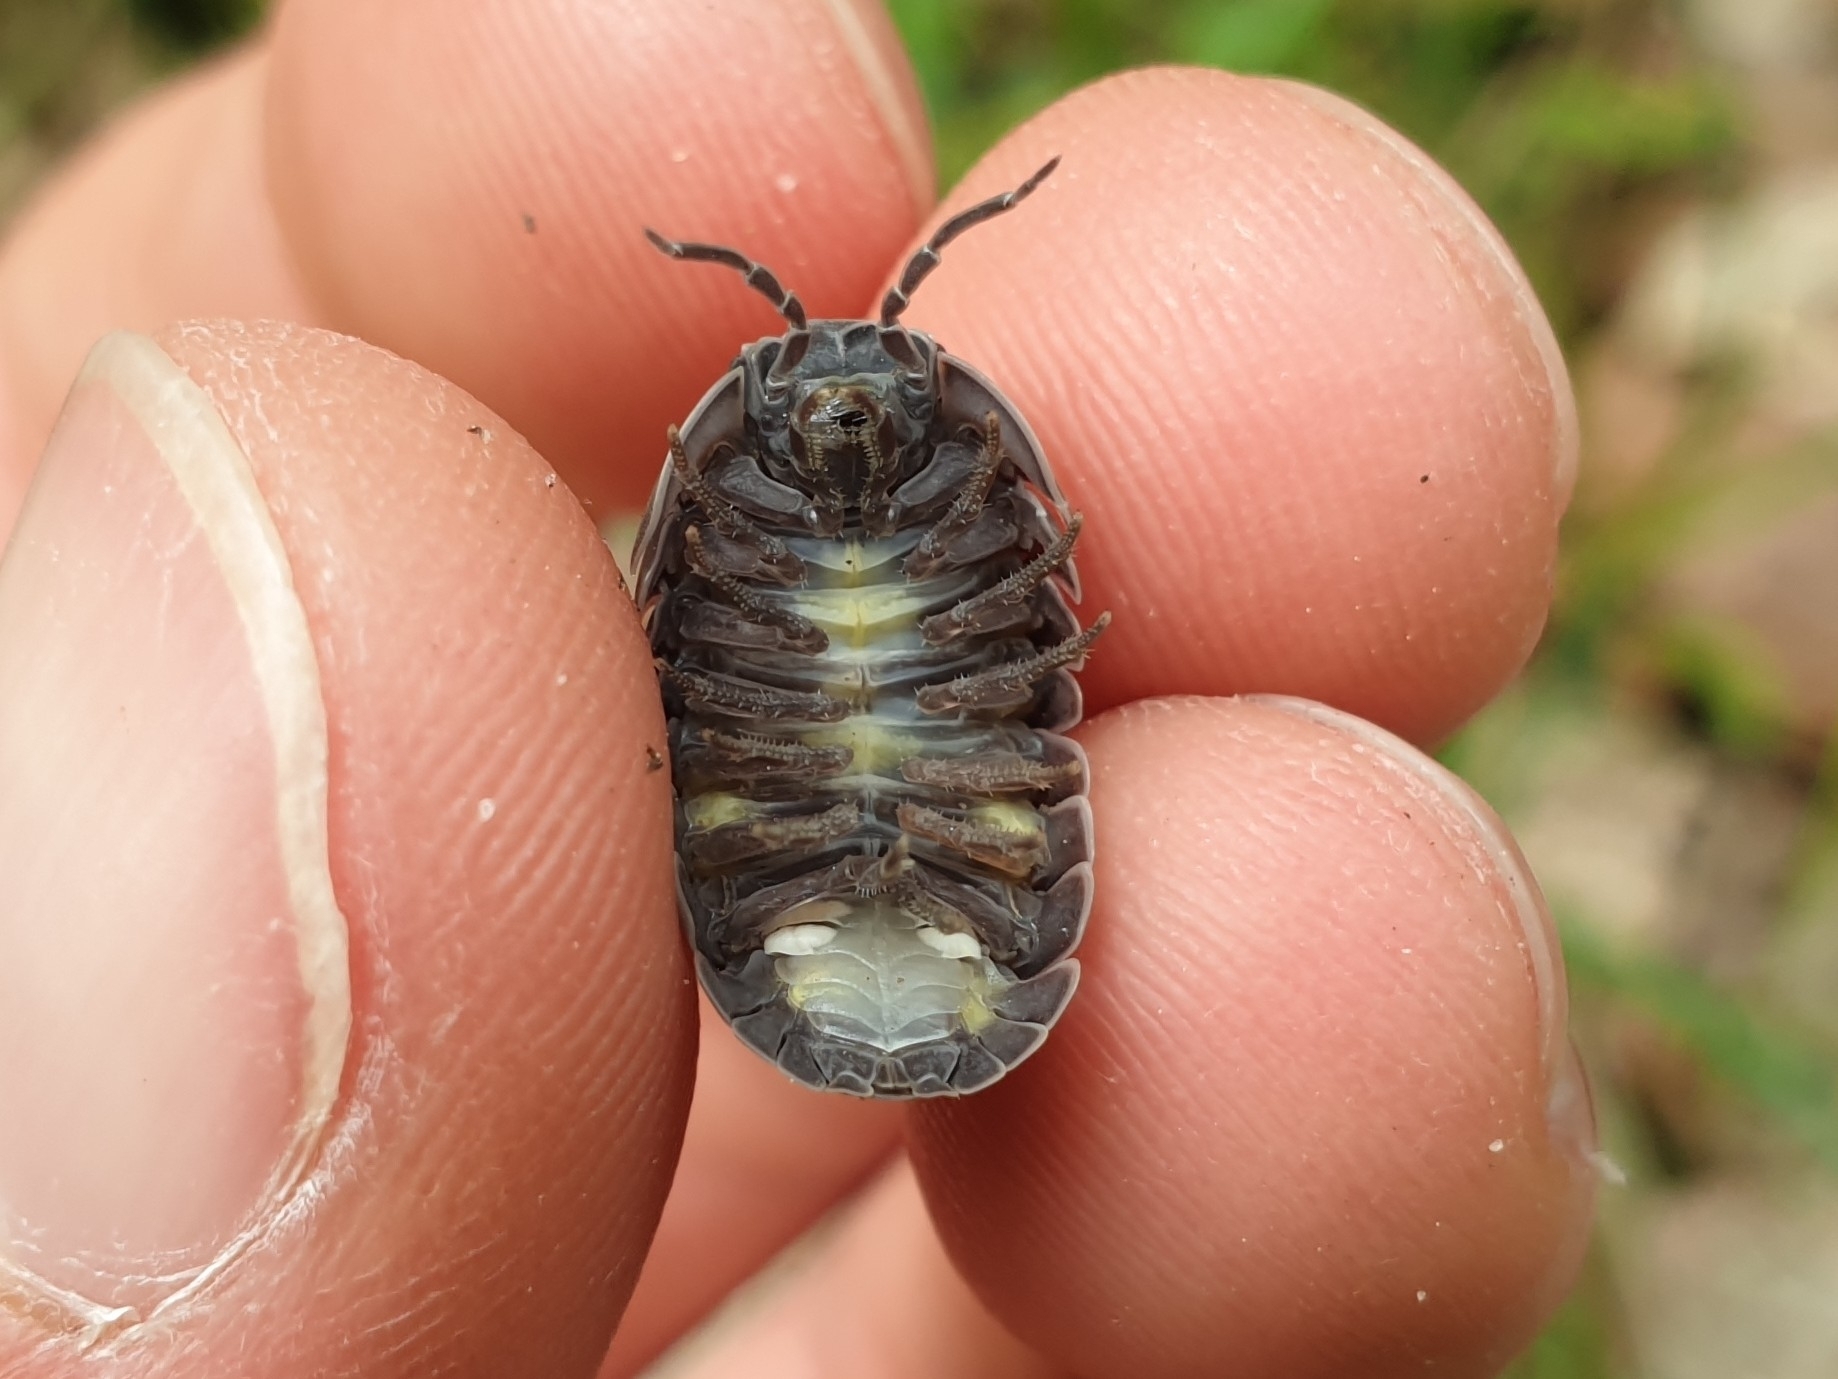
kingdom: Animalia
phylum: Arthropoda
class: Malacostraca
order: Isopoda
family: Armadillidiidae
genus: Armadillidium
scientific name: Armadillidium vulgare
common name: Common pill woodlouse
